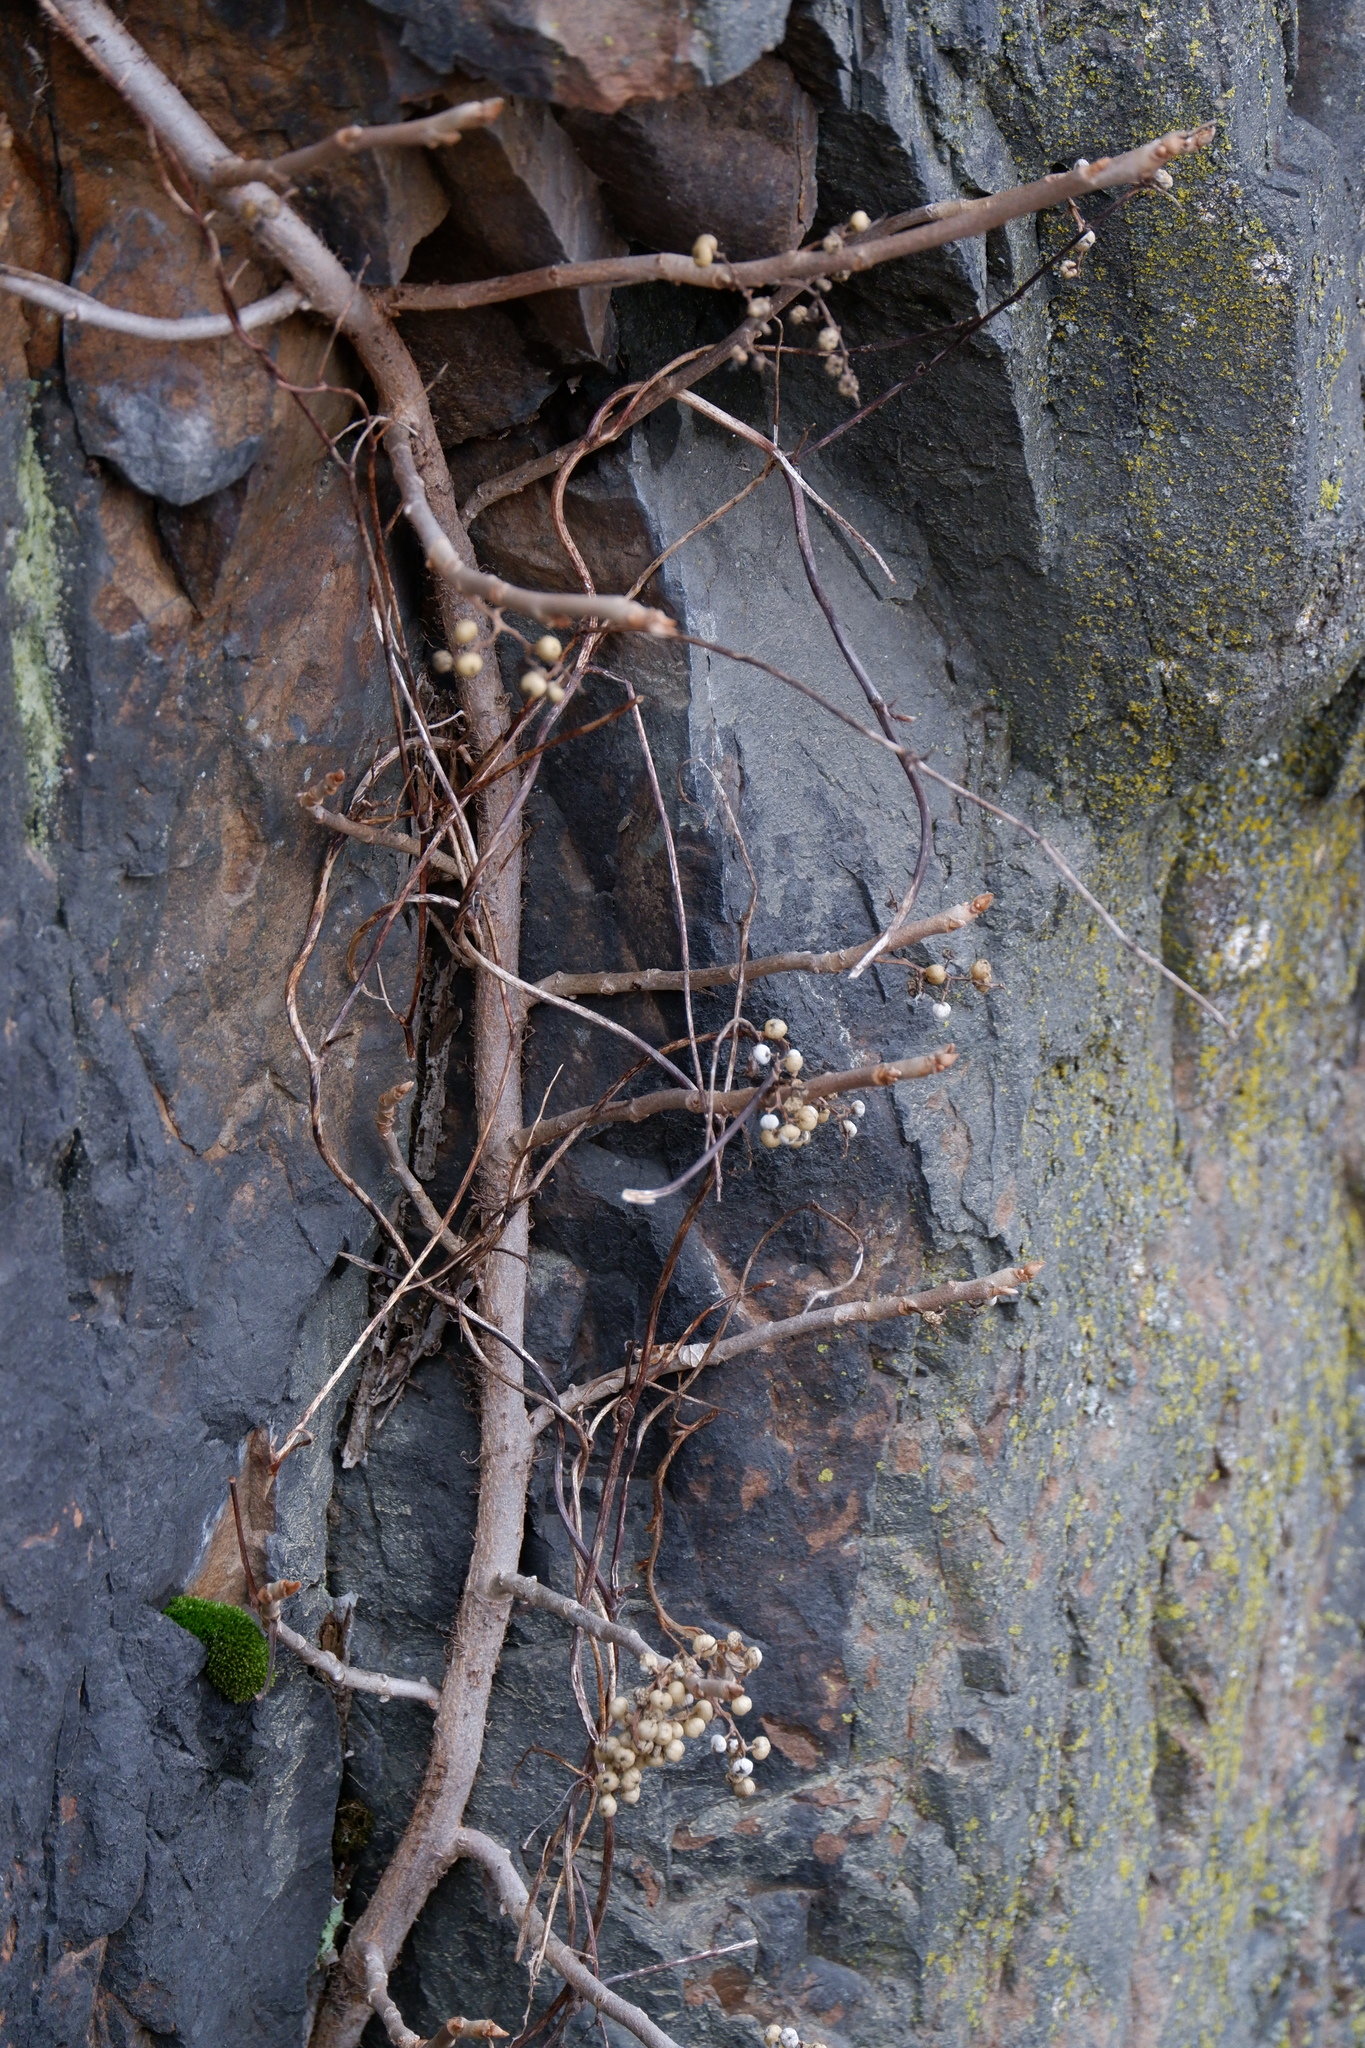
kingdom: Plantae
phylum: Tracheophyta
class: Magnoliopsida
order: Sapindales
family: Anacardiaceae
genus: Toxicodendron
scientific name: Toxicodendron radicans
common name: Poison ivy
